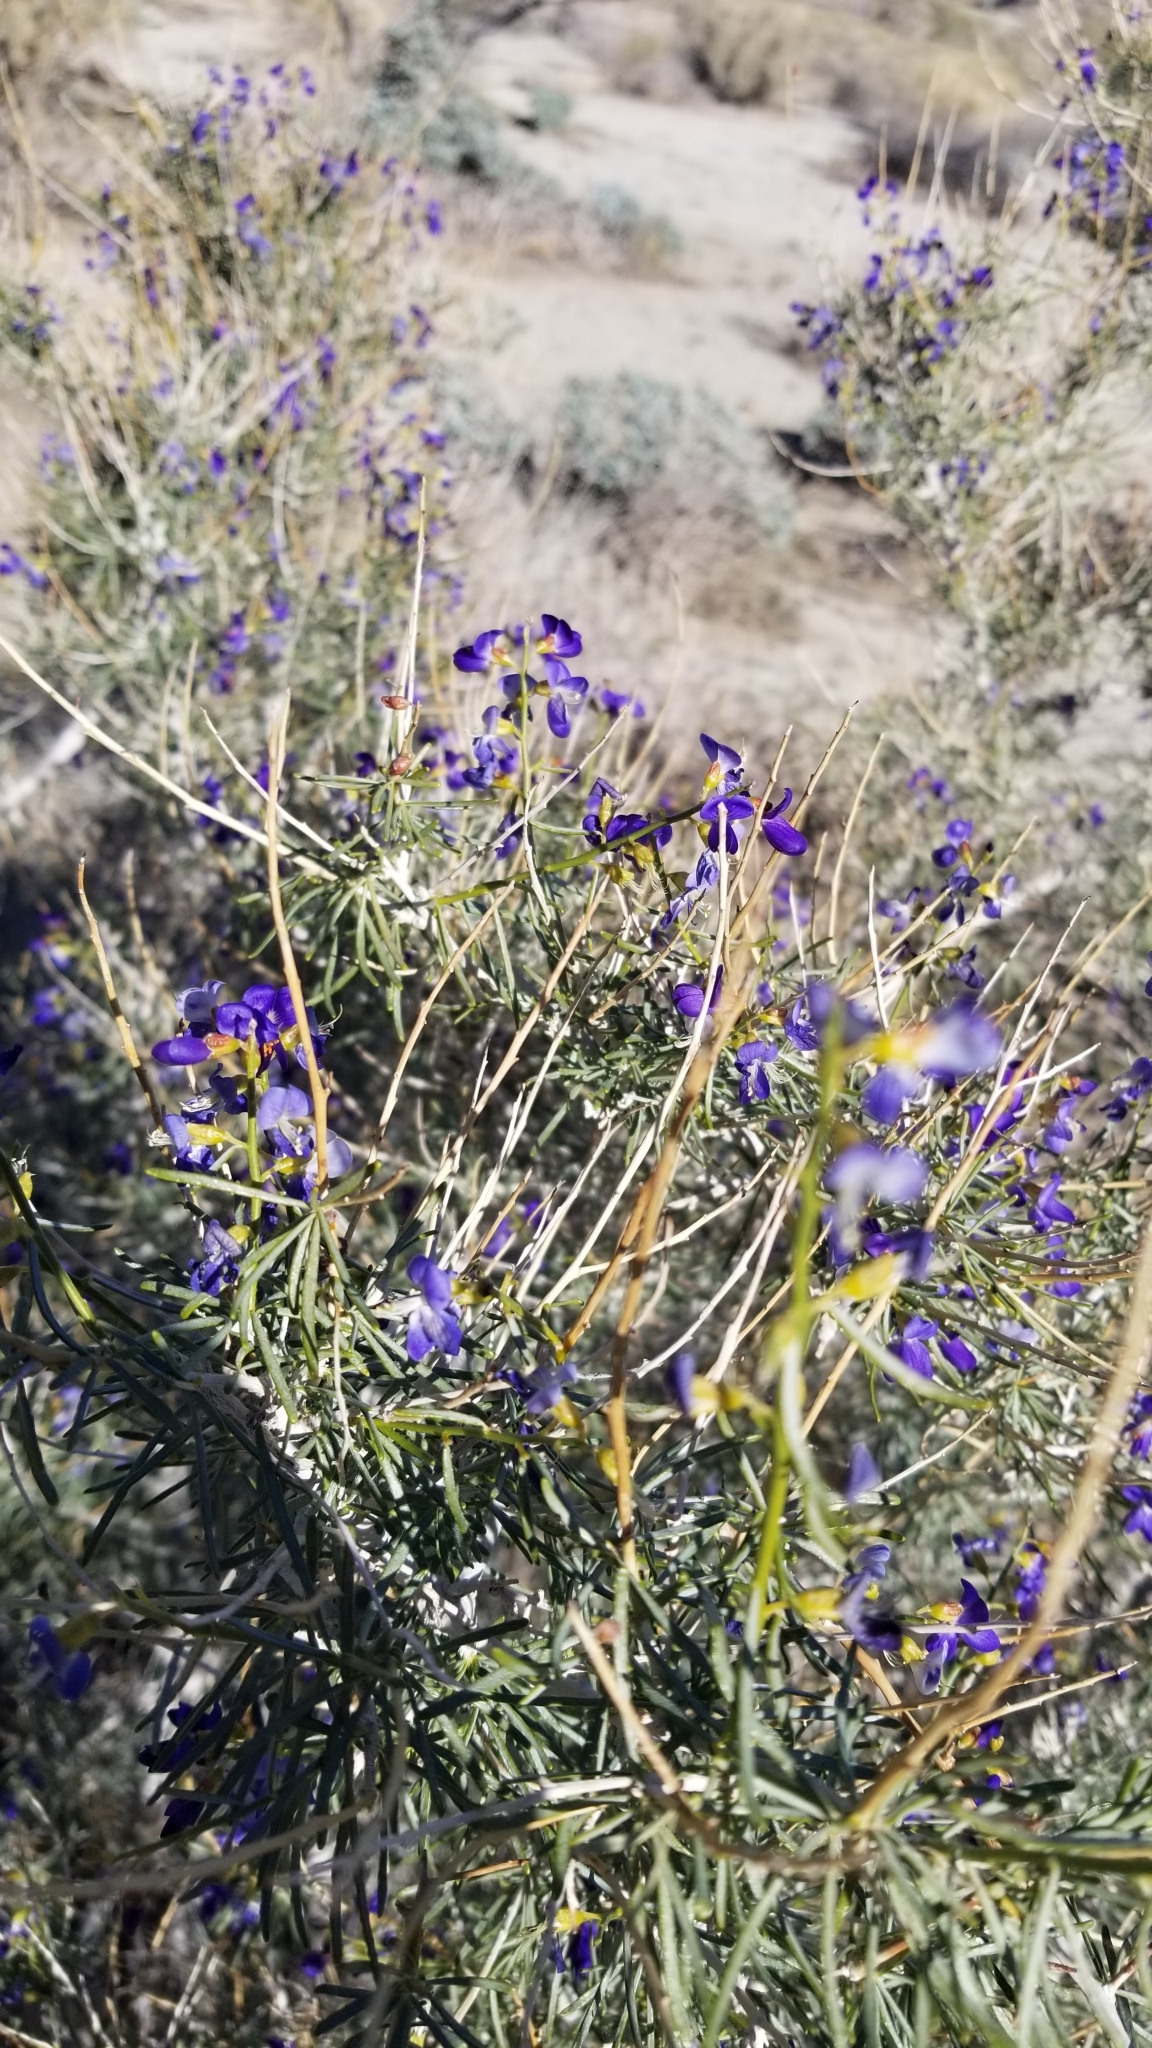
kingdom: Plantae
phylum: Tracheophyta
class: Magnoliopsida
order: Fabales
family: Fabaceae
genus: Psorothamnus
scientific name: Psorothamnus schottii
